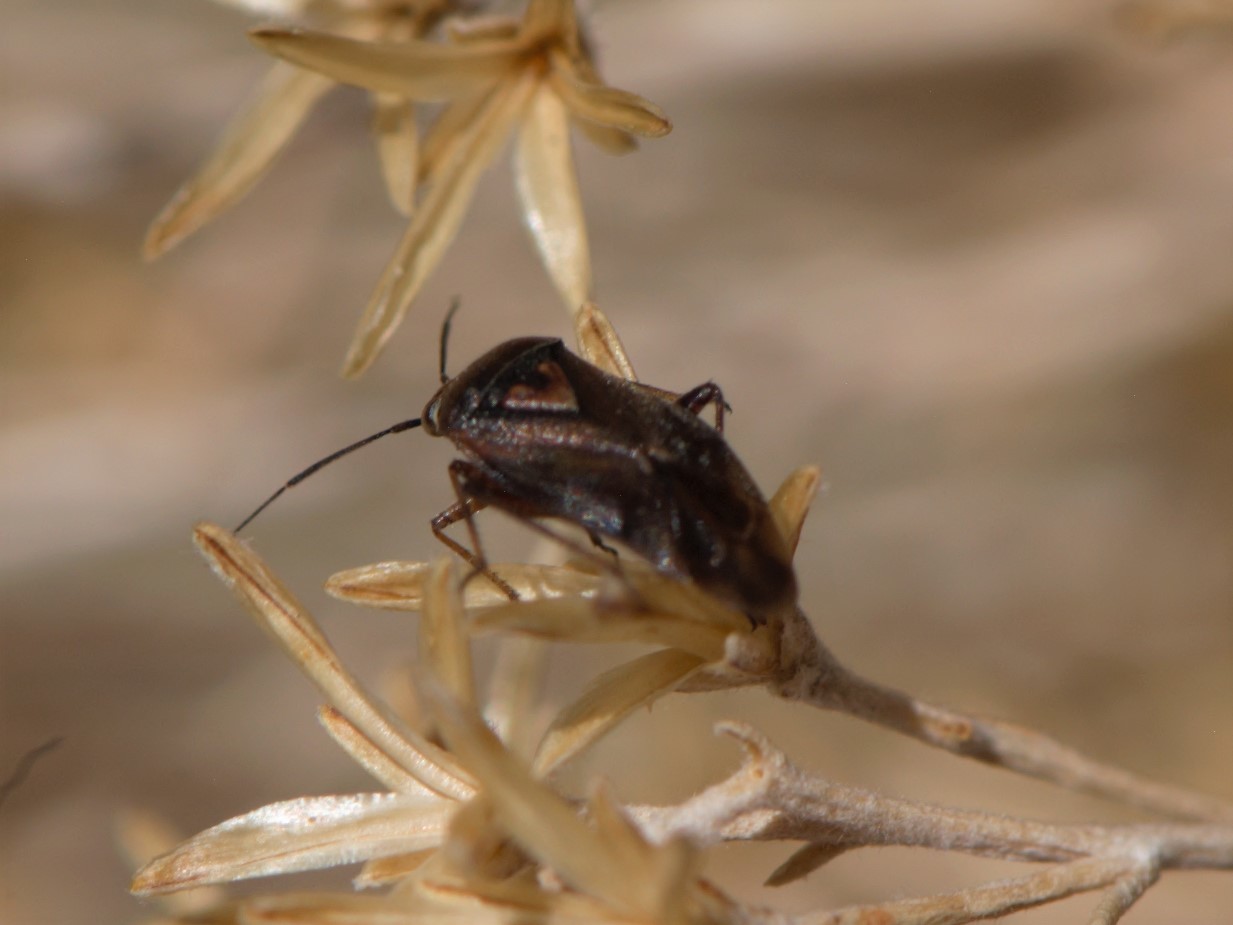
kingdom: Animalia
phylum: Arthropoda
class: Insecta
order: Hemiptera
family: Miridae
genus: Lygus
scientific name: Lygus
